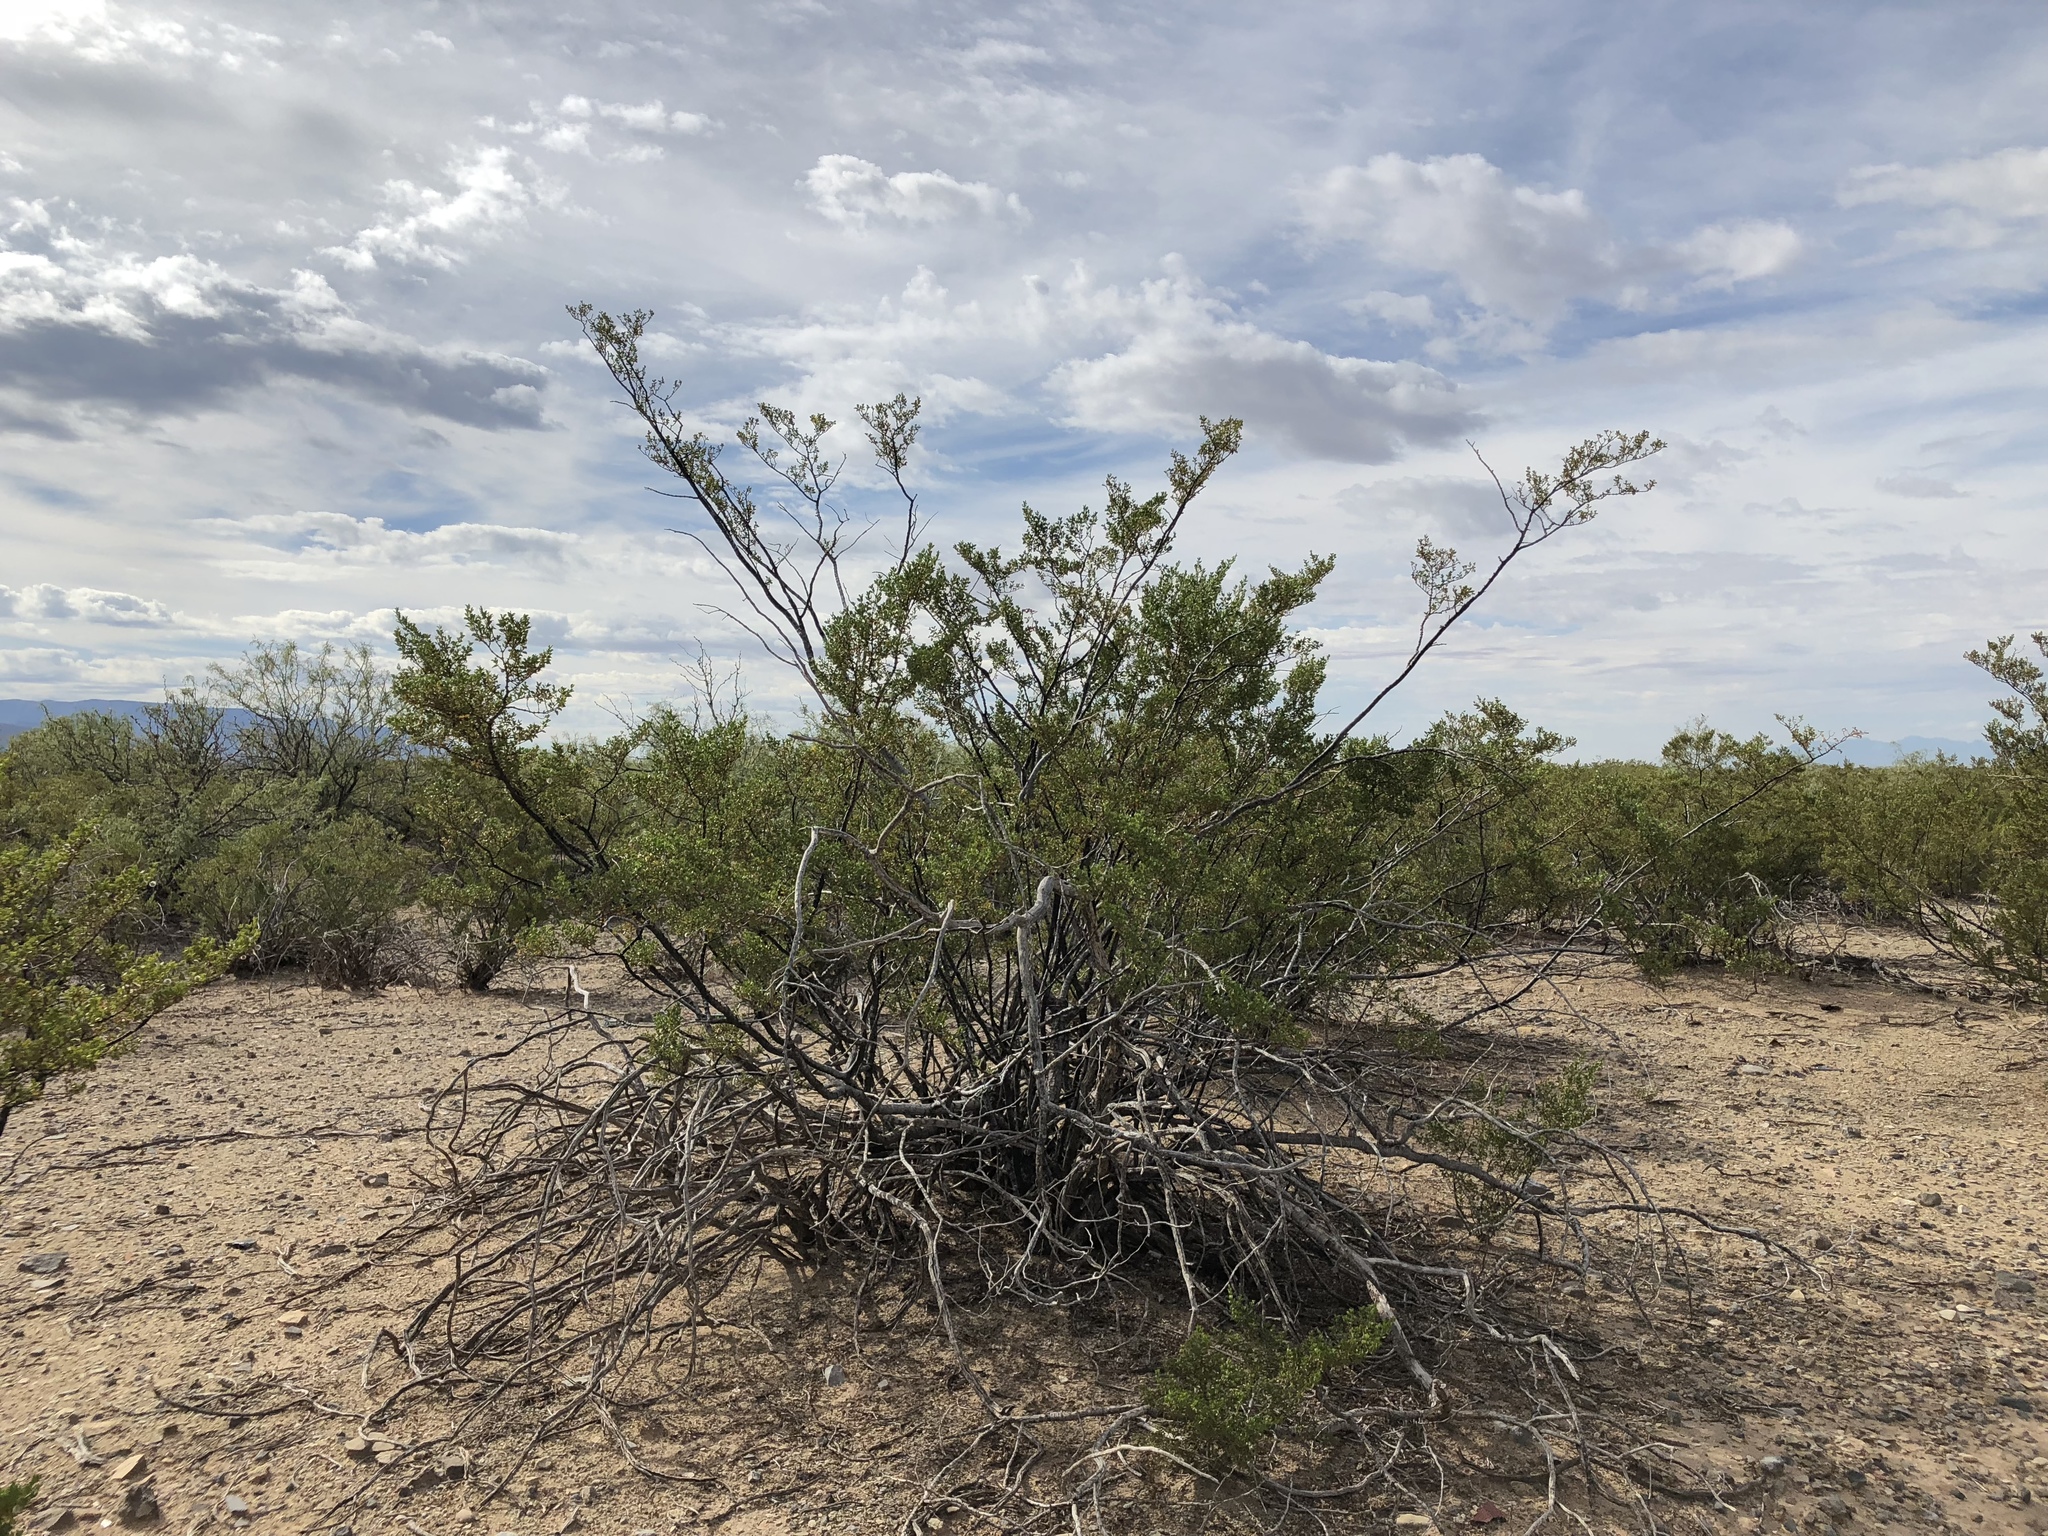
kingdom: Plantae
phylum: Tracheophyta
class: Magnoliopsida
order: Zygophyllales
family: Zygophyllaceae
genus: Larrea
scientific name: Larrea tridentata
